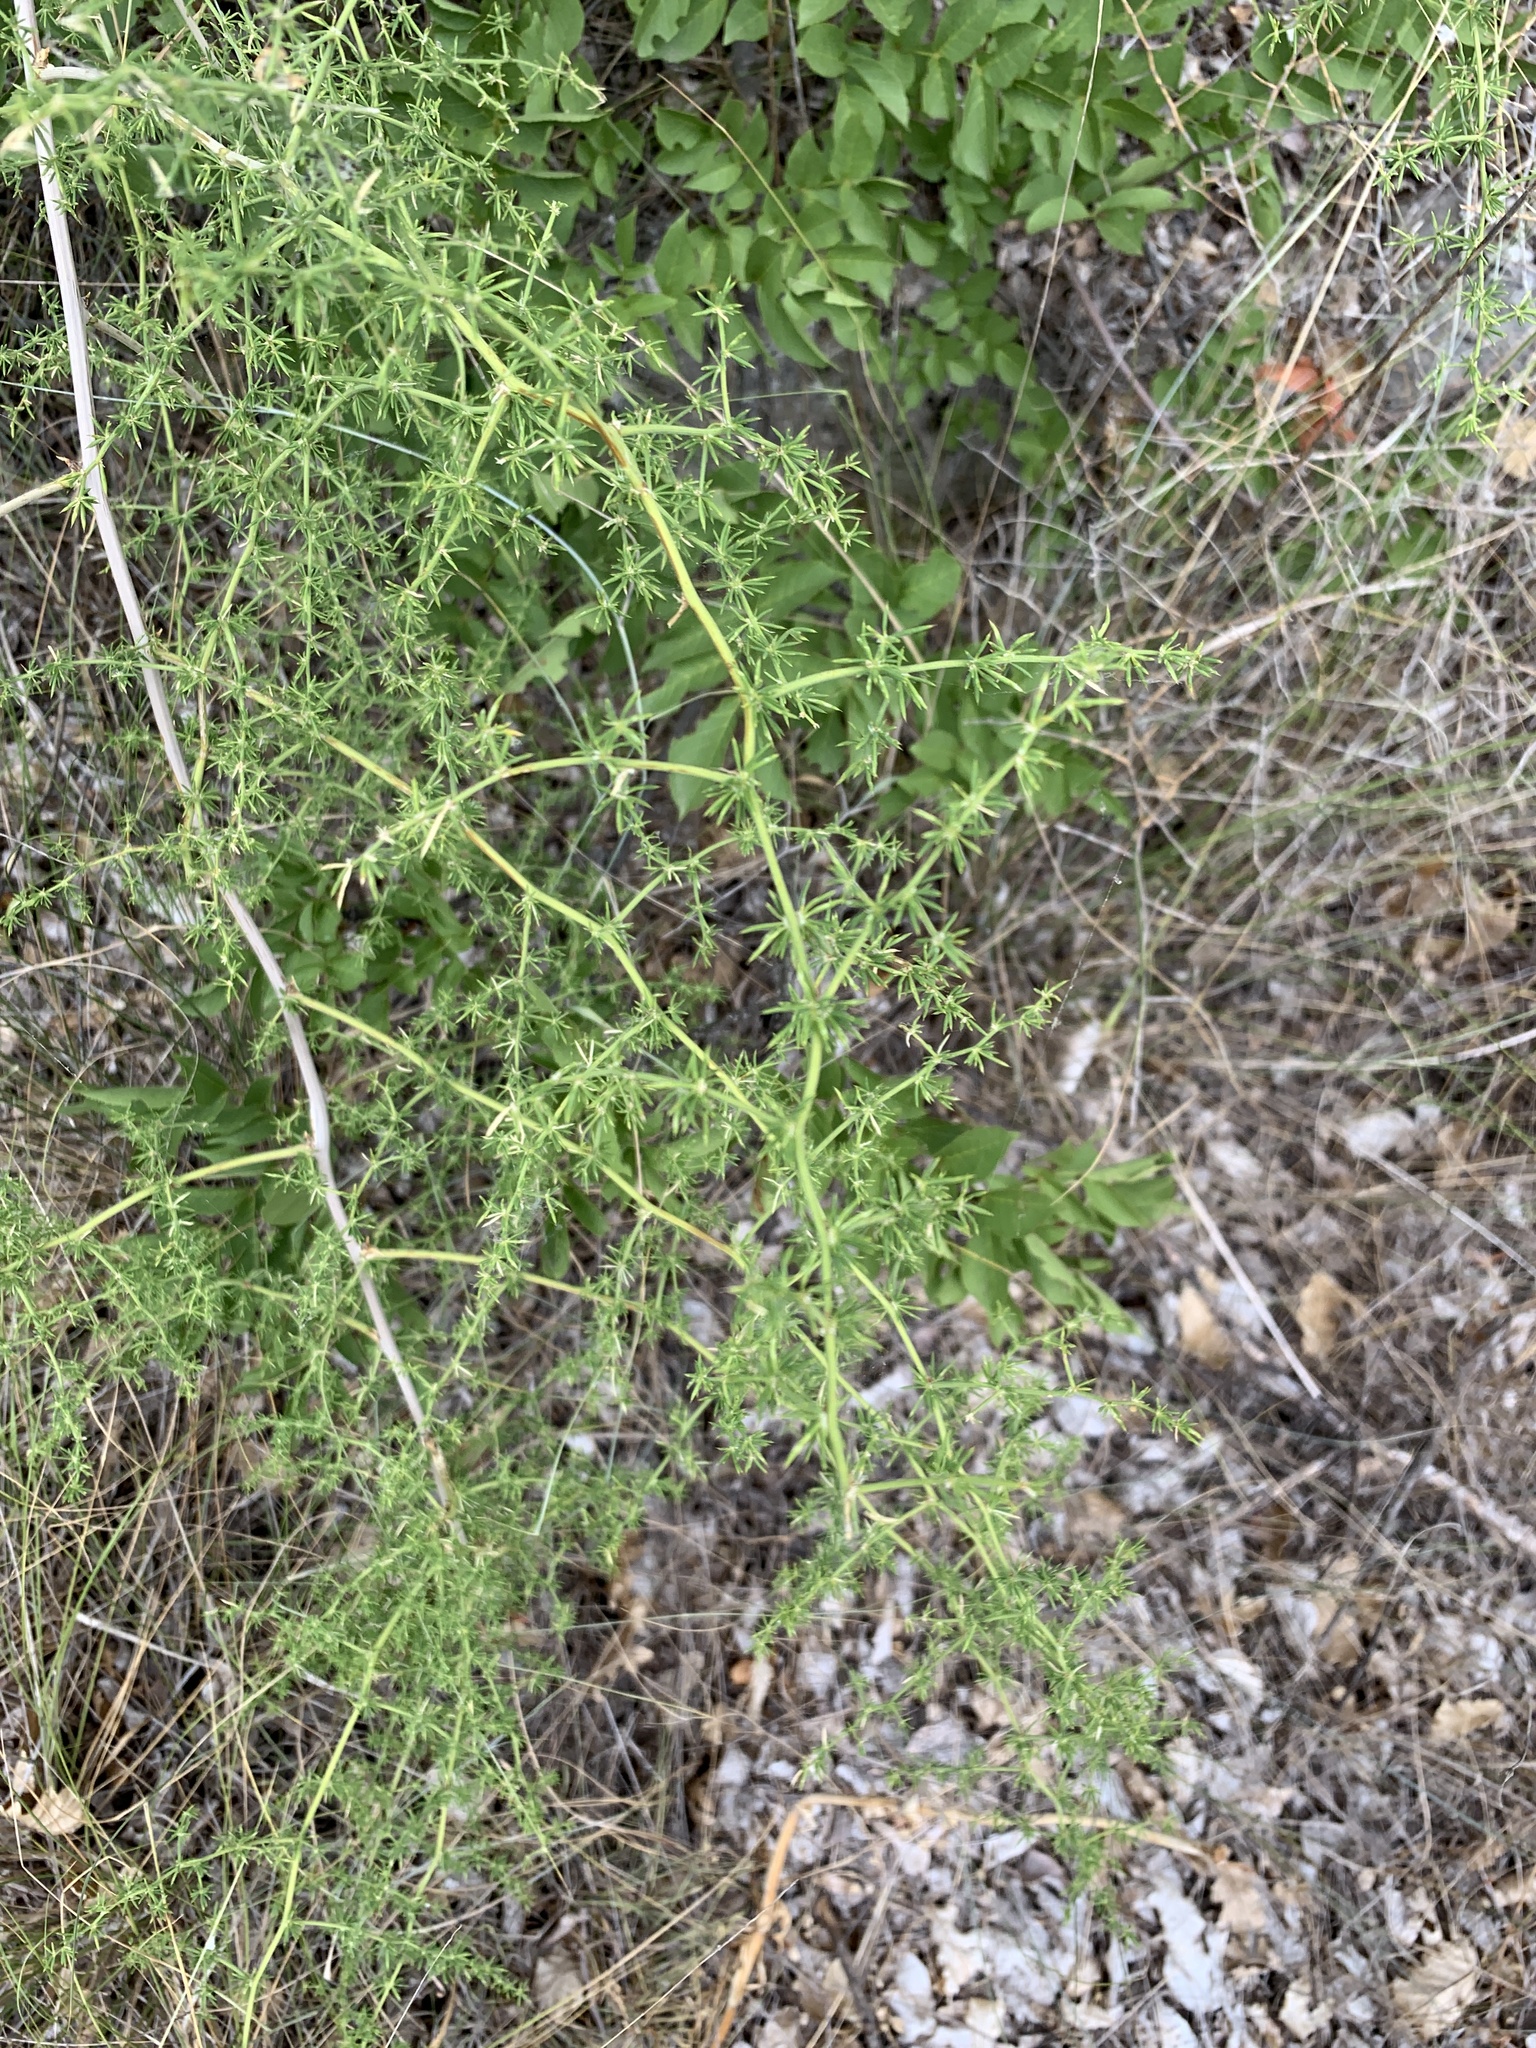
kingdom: Plantae
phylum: Tracheophyta
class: Liliopsida
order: Asparagales
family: Asparagaceae
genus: Asparagus
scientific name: Asparagus acutifolius
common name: Wild asparagus
